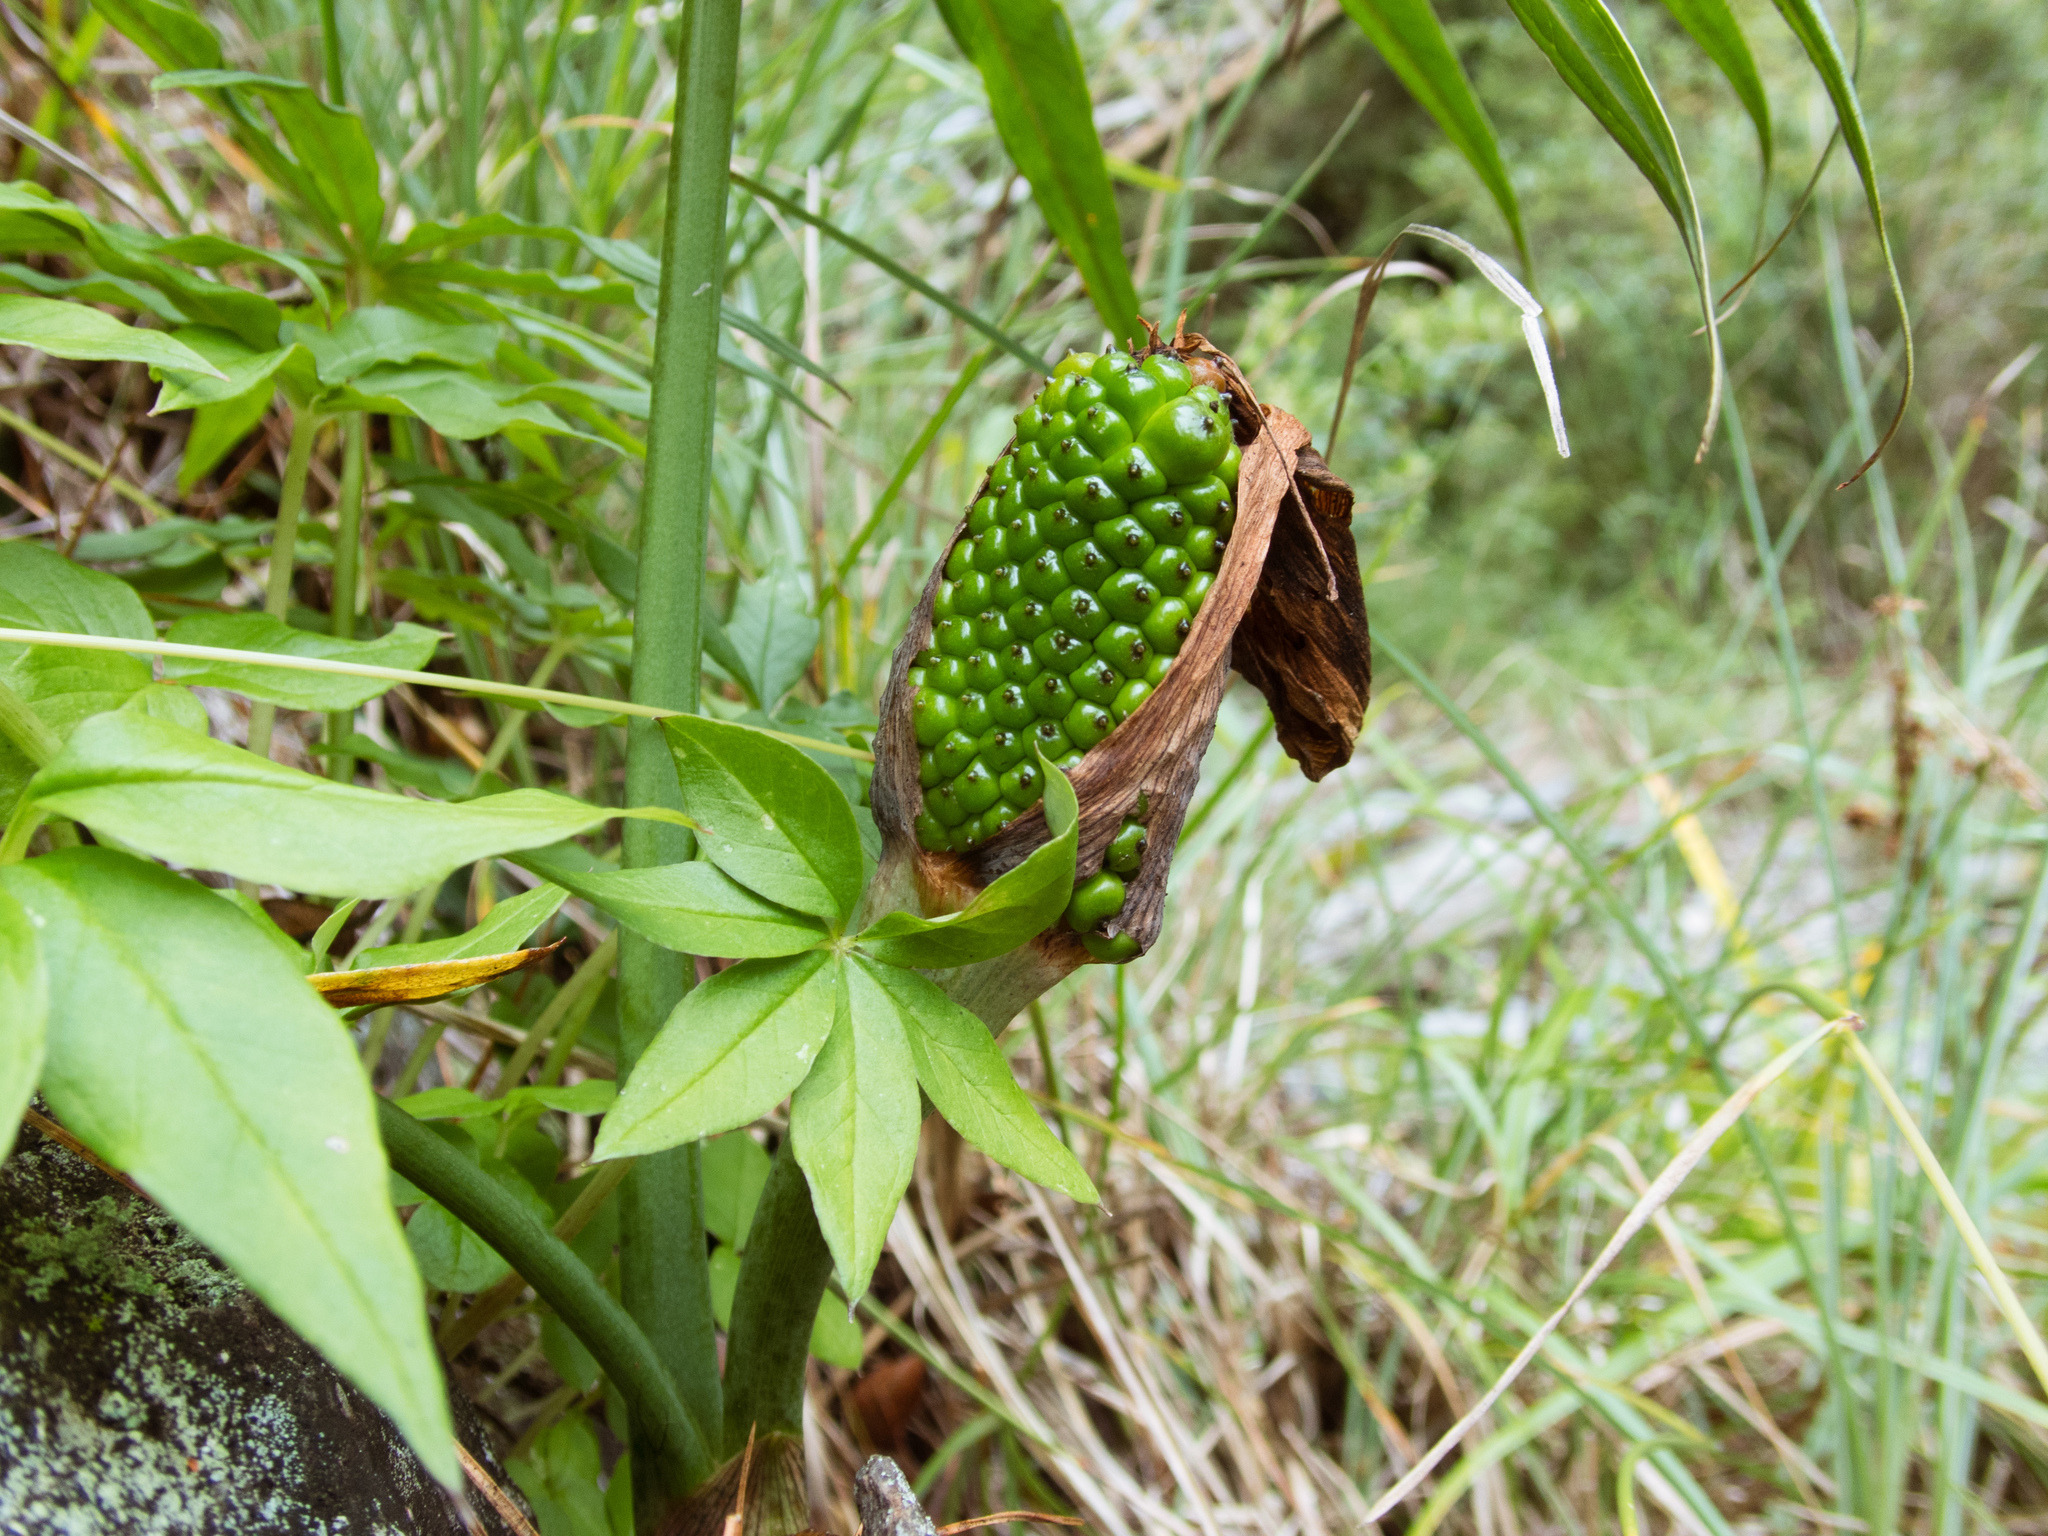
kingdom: Plantae
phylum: Tracheophyta
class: Liliopsida
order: Alismatales
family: Araceae
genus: Arisaema
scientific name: Arisaema consanguineum
